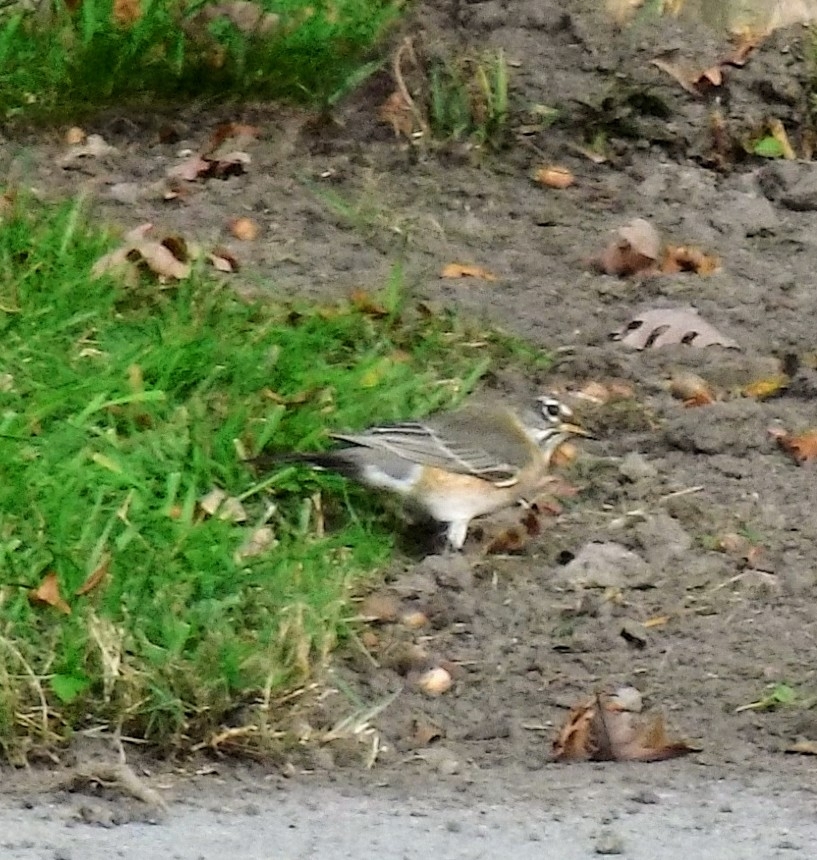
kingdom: Animalia
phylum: Chordata
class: Aves
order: Passeriformes
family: Turdidae
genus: Turdus
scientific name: Turdus migratorius
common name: American robin
